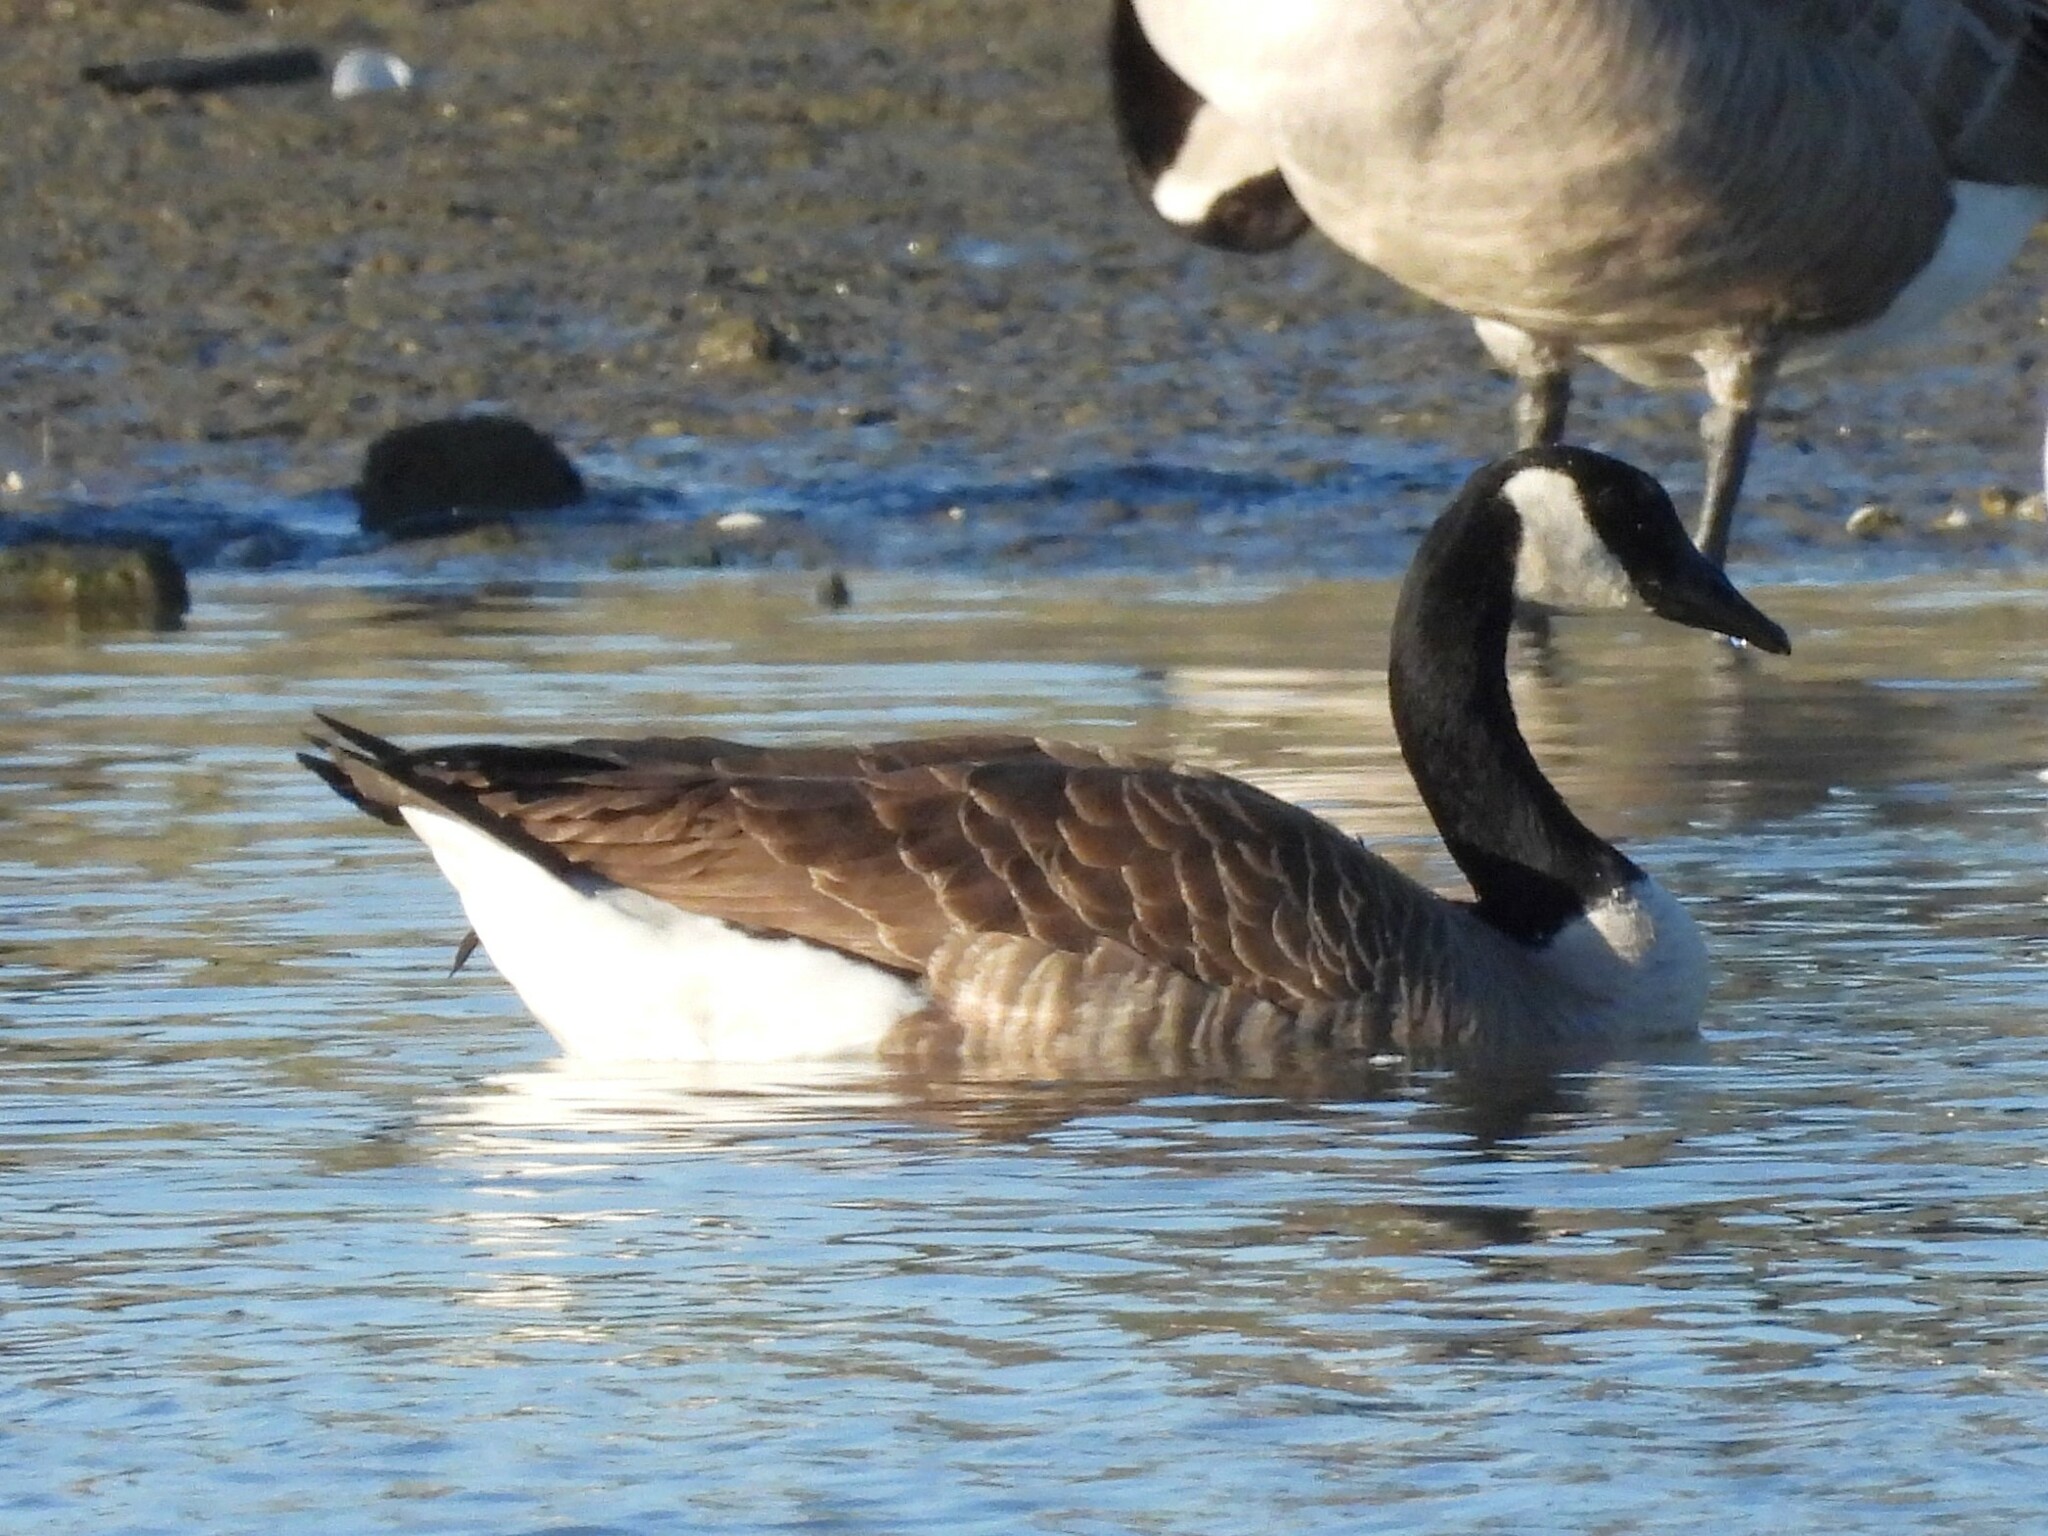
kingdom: Animalia
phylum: Chordata
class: Aves
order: Anseriformes
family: Anatidae
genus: Branta
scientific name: Branta canadensis
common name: Canada goose
